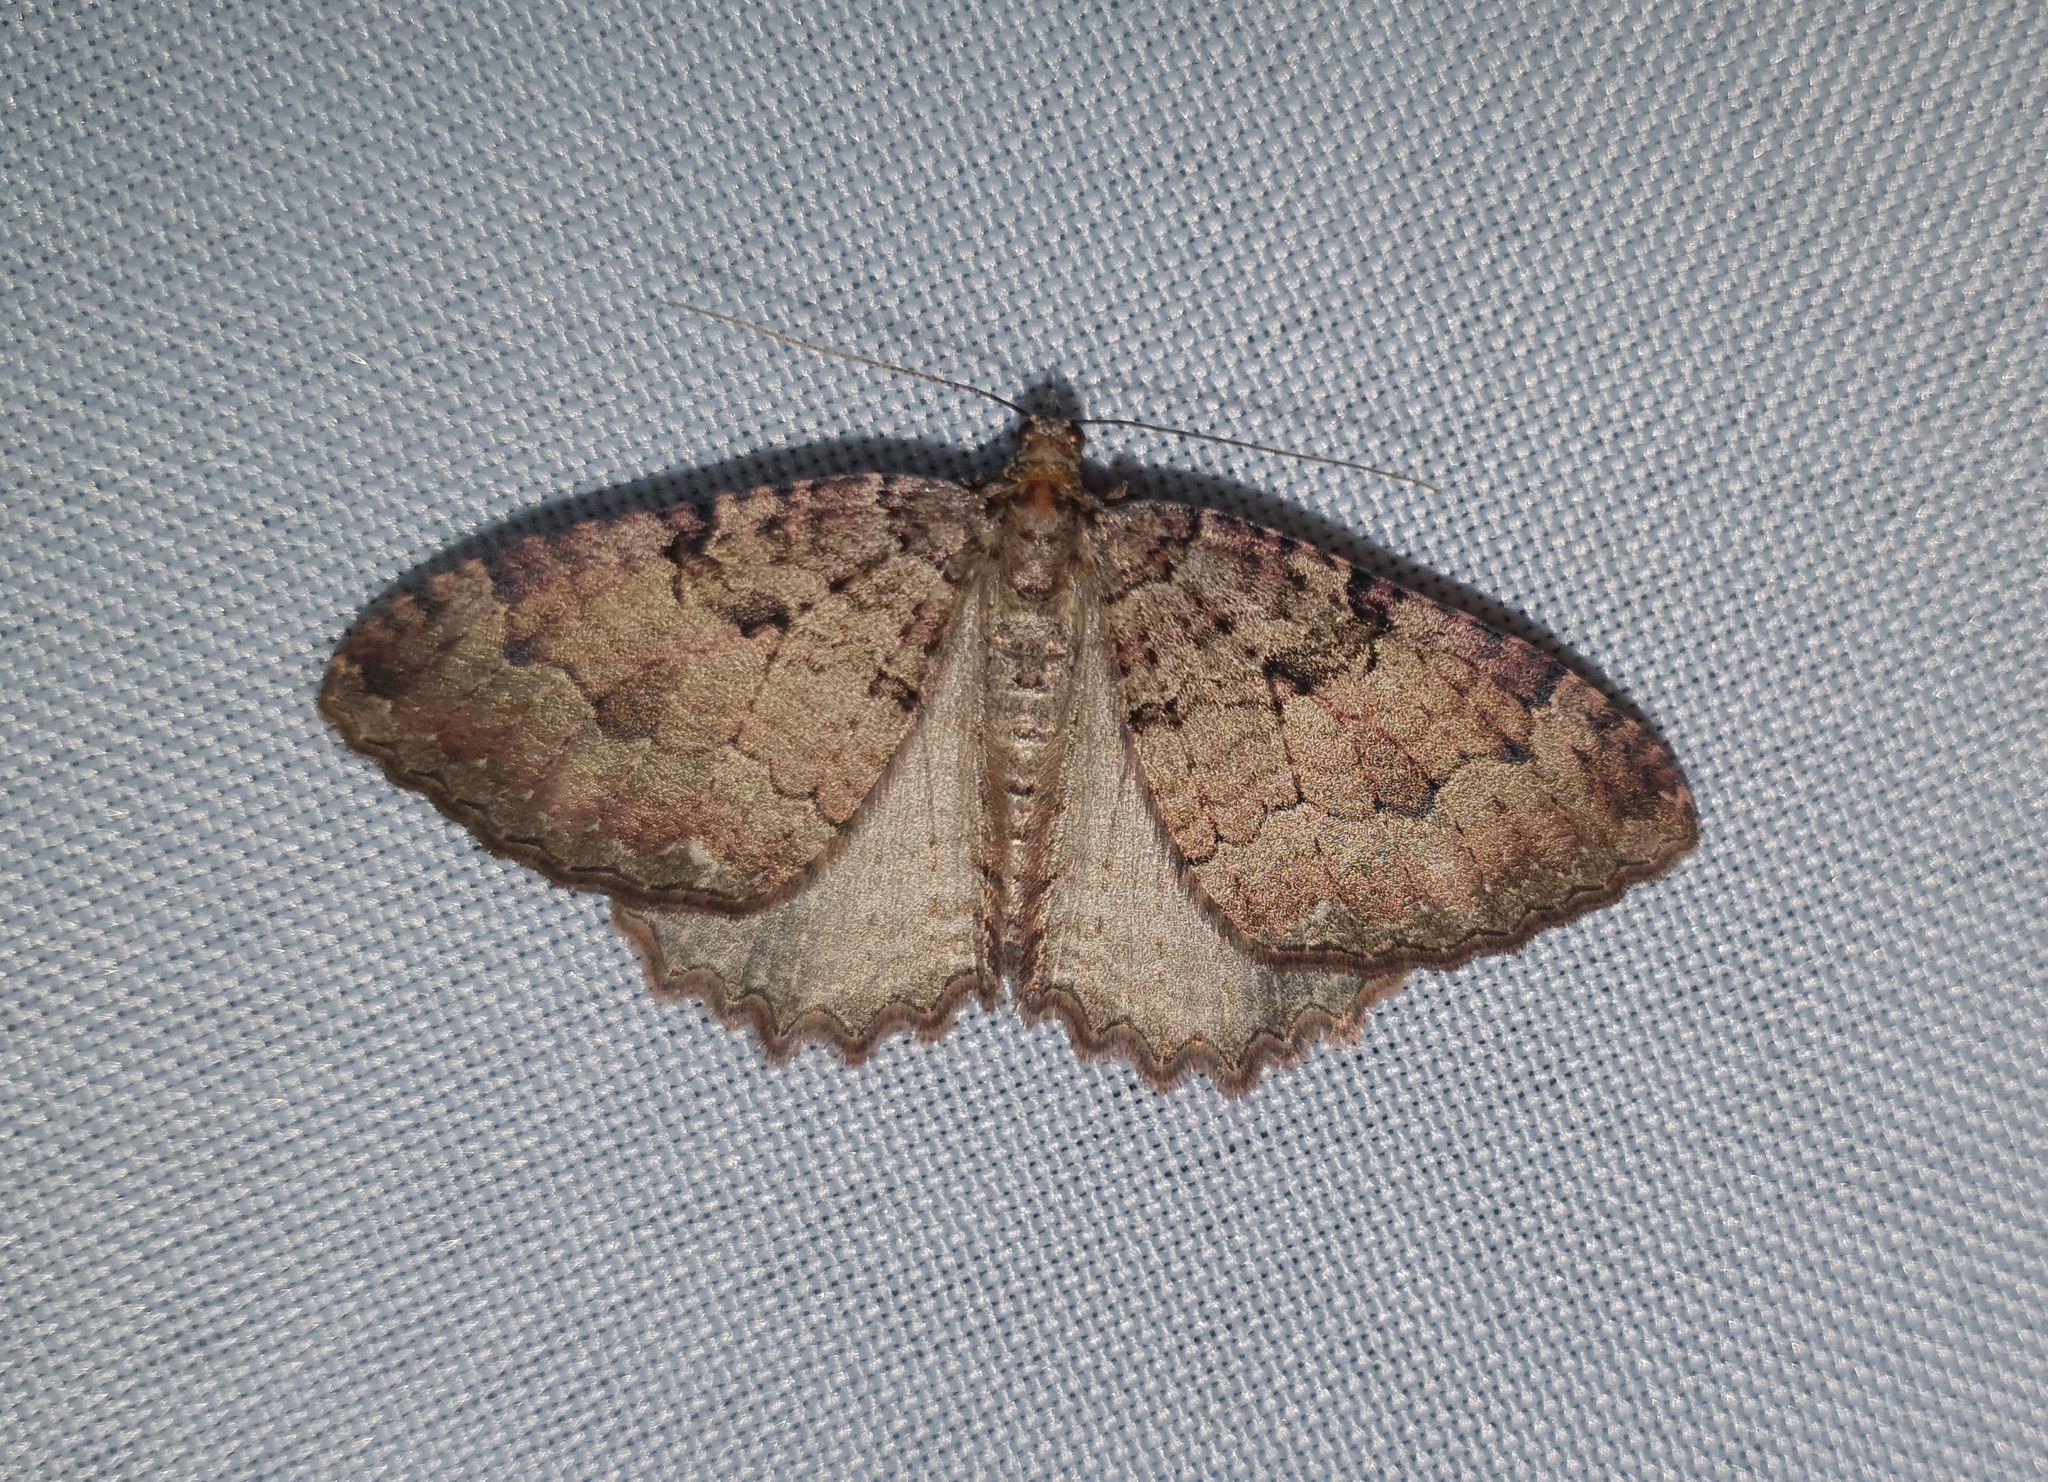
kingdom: Animalia
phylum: Arthropoda
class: Insecta
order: Lepidoptera
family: Geometridae
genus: Triphosa
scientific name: Triphosa dubitata
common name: Tissue
